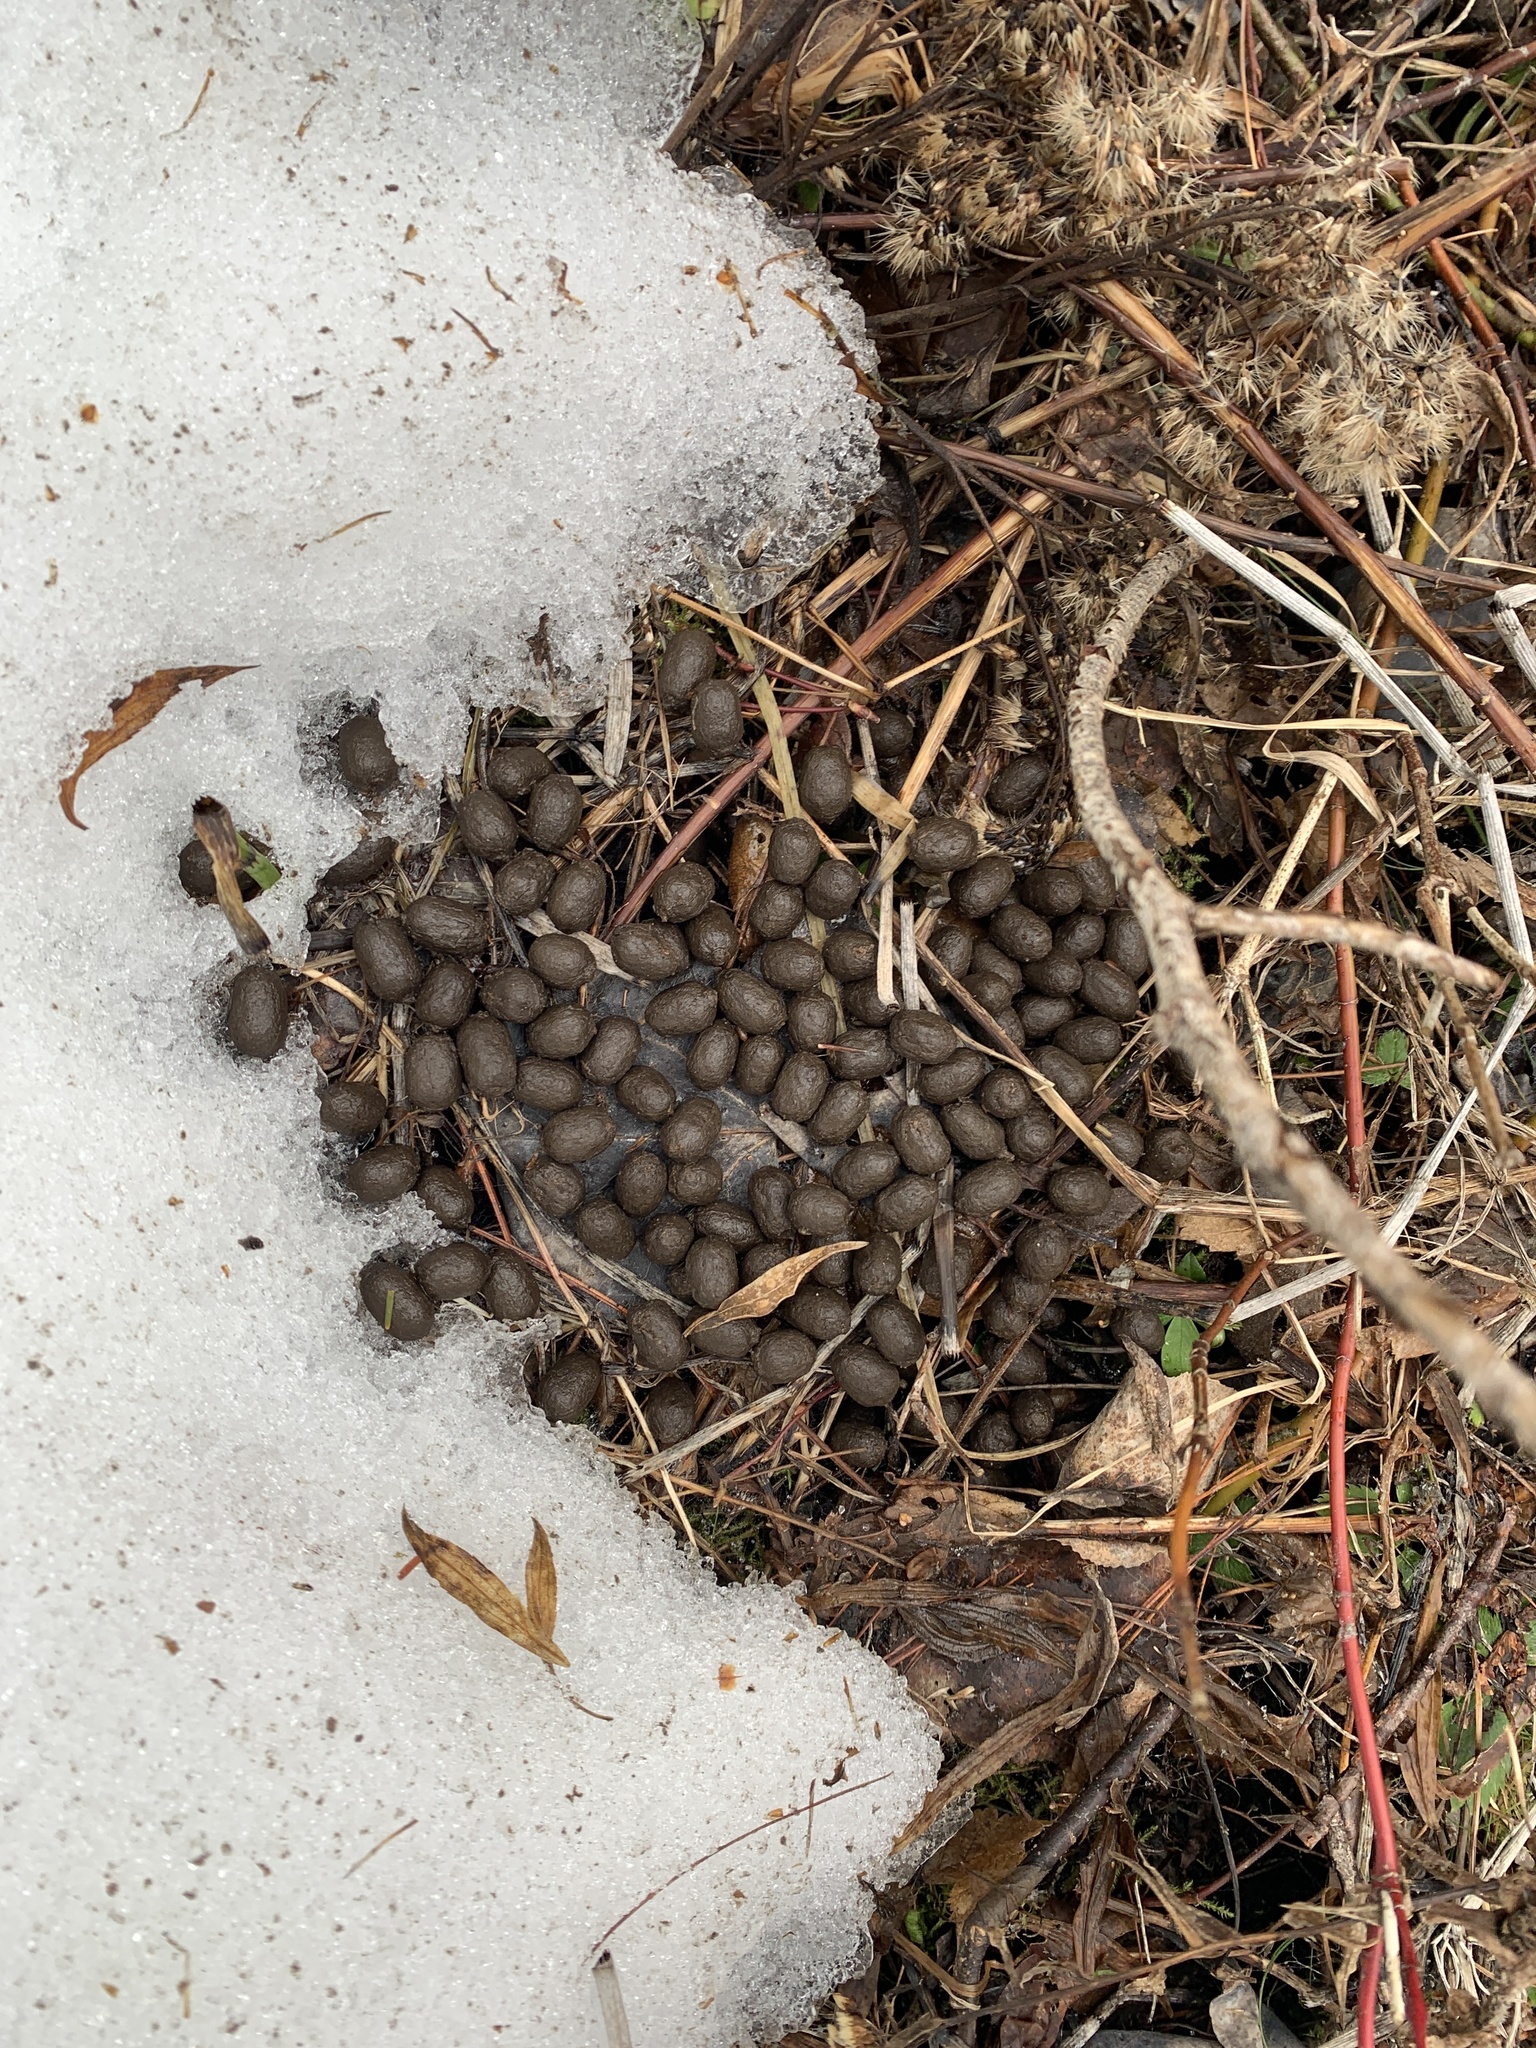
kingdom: Animalia
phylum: Chordata
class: Mammalia
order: Artiodactyla
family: Cervidae
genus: Odocoileus
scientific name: Odocoileus virginianus
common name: White-tailed deer
